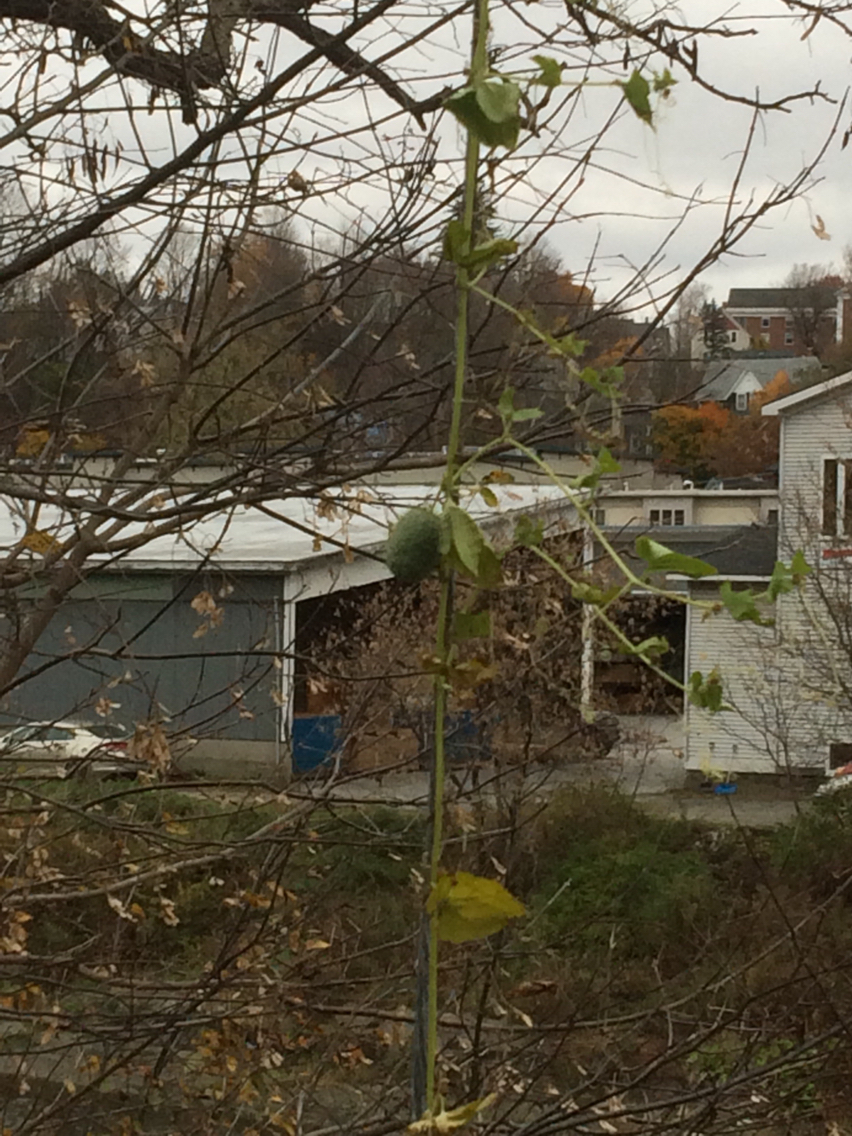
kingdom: Plantae
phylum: Tracheophyta
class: Magnoliopsida
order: Cucurbitales
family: Cucurbitaceae
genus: Echinocystis
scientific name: Echinocystis lobata
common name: Wild cucumber
